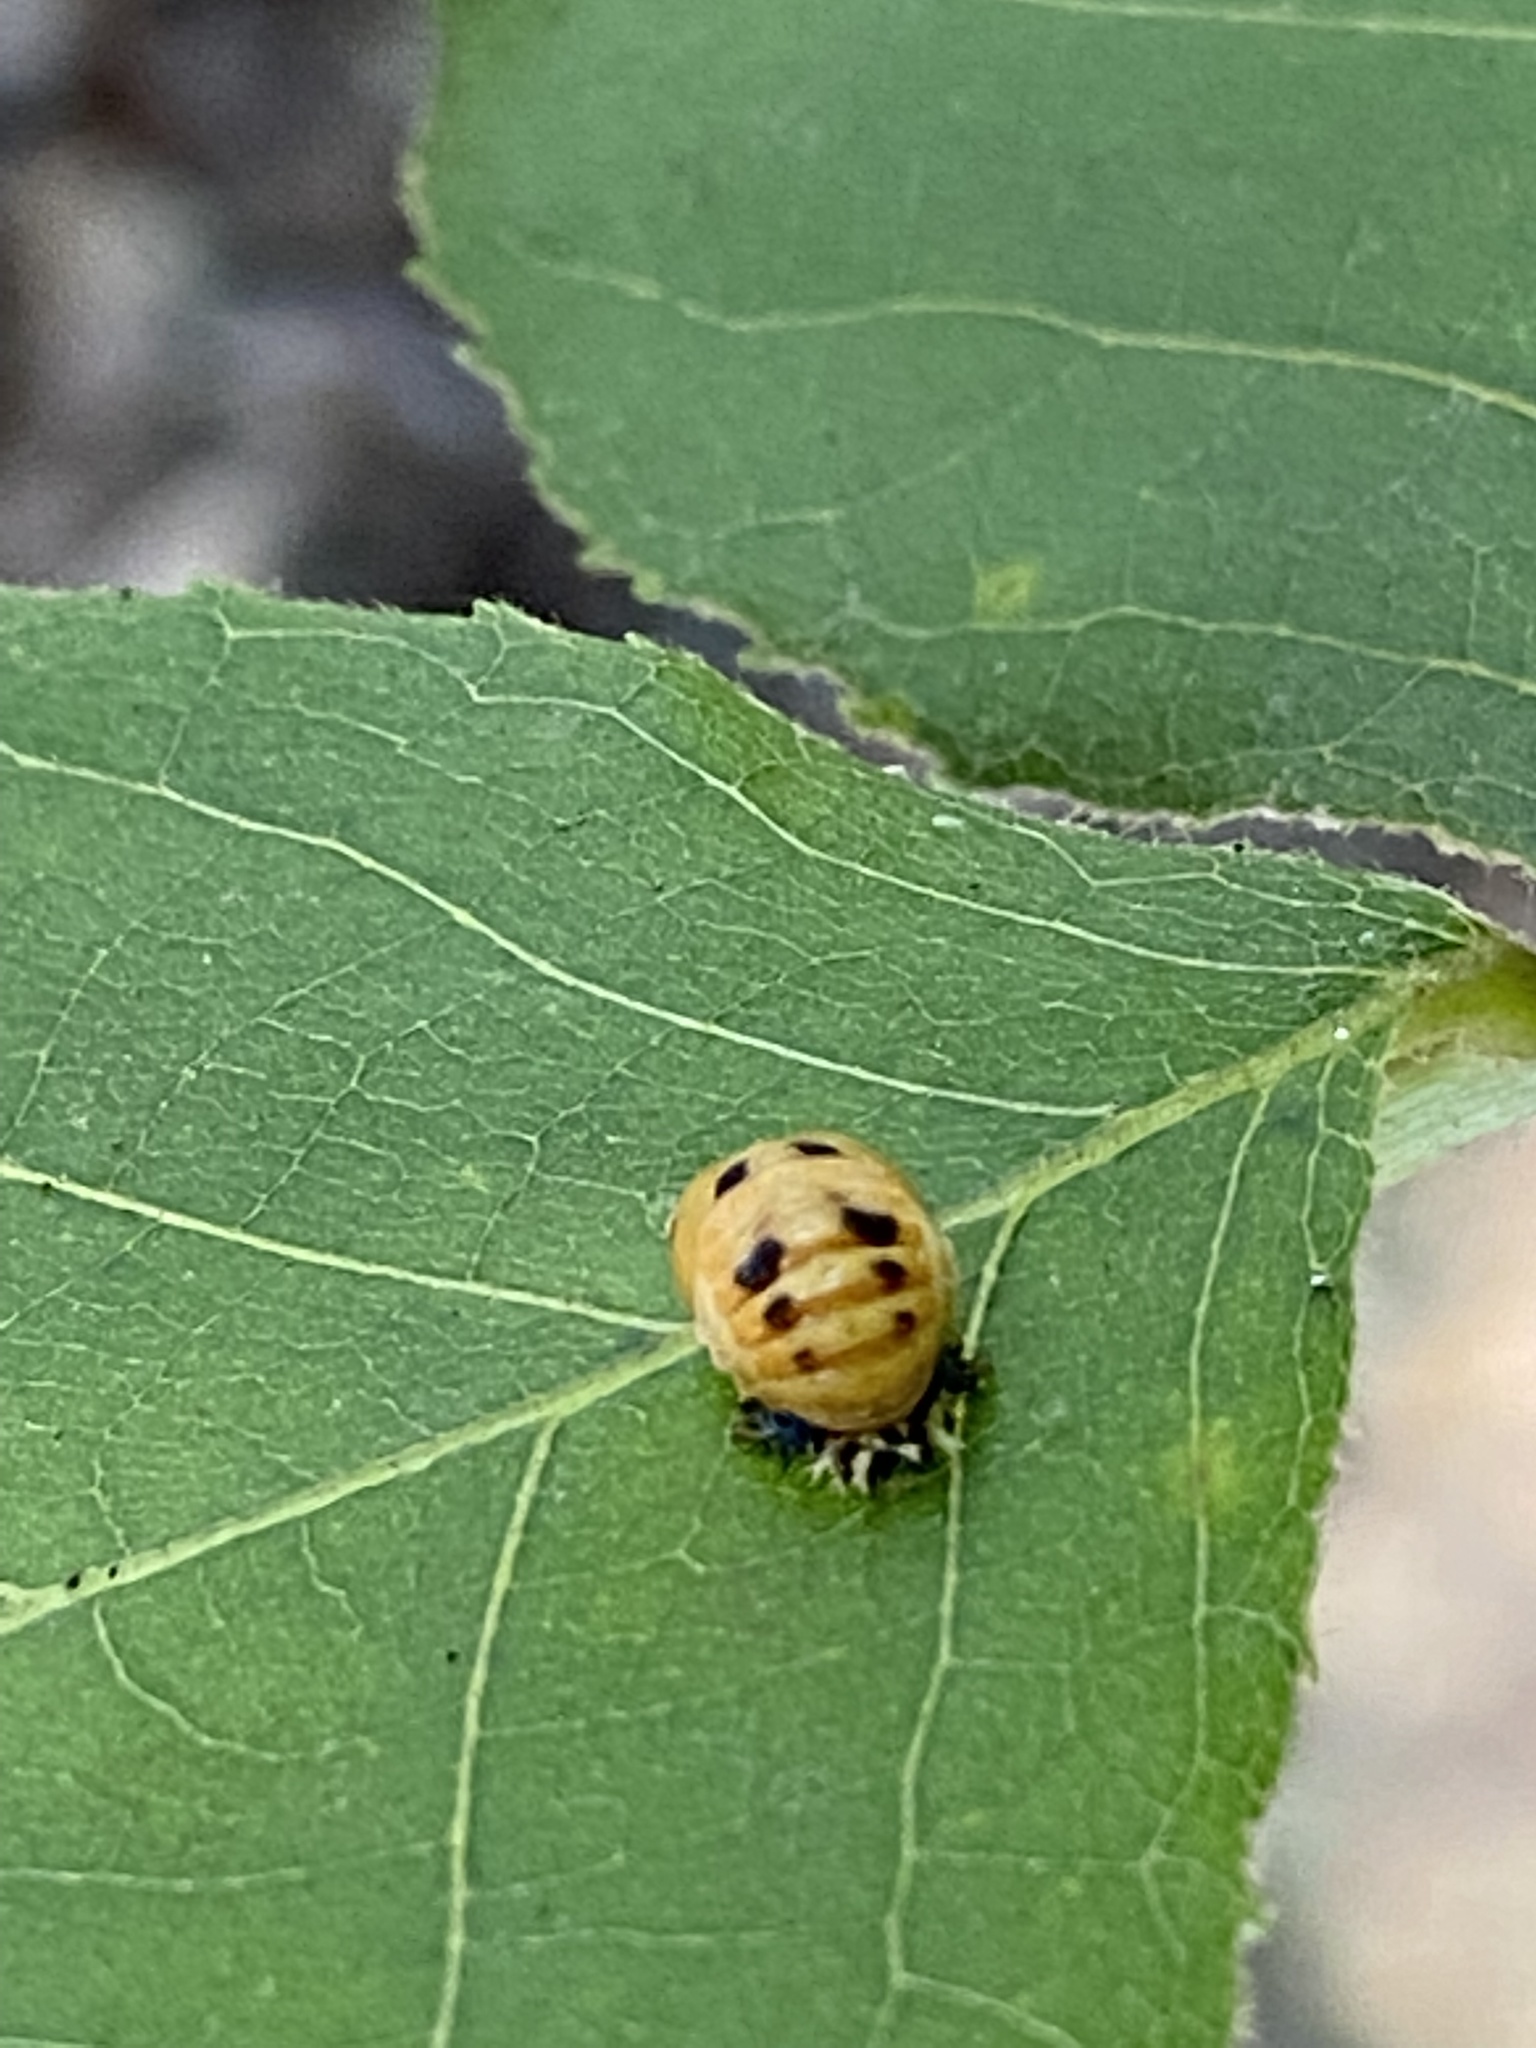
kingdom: Animalia
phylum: Arthropoda
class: Insecta
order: Coleoptera
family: Coccinellidae
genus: Harmonia
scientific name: Harmonia axyridis
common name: Harlequin ladybird
